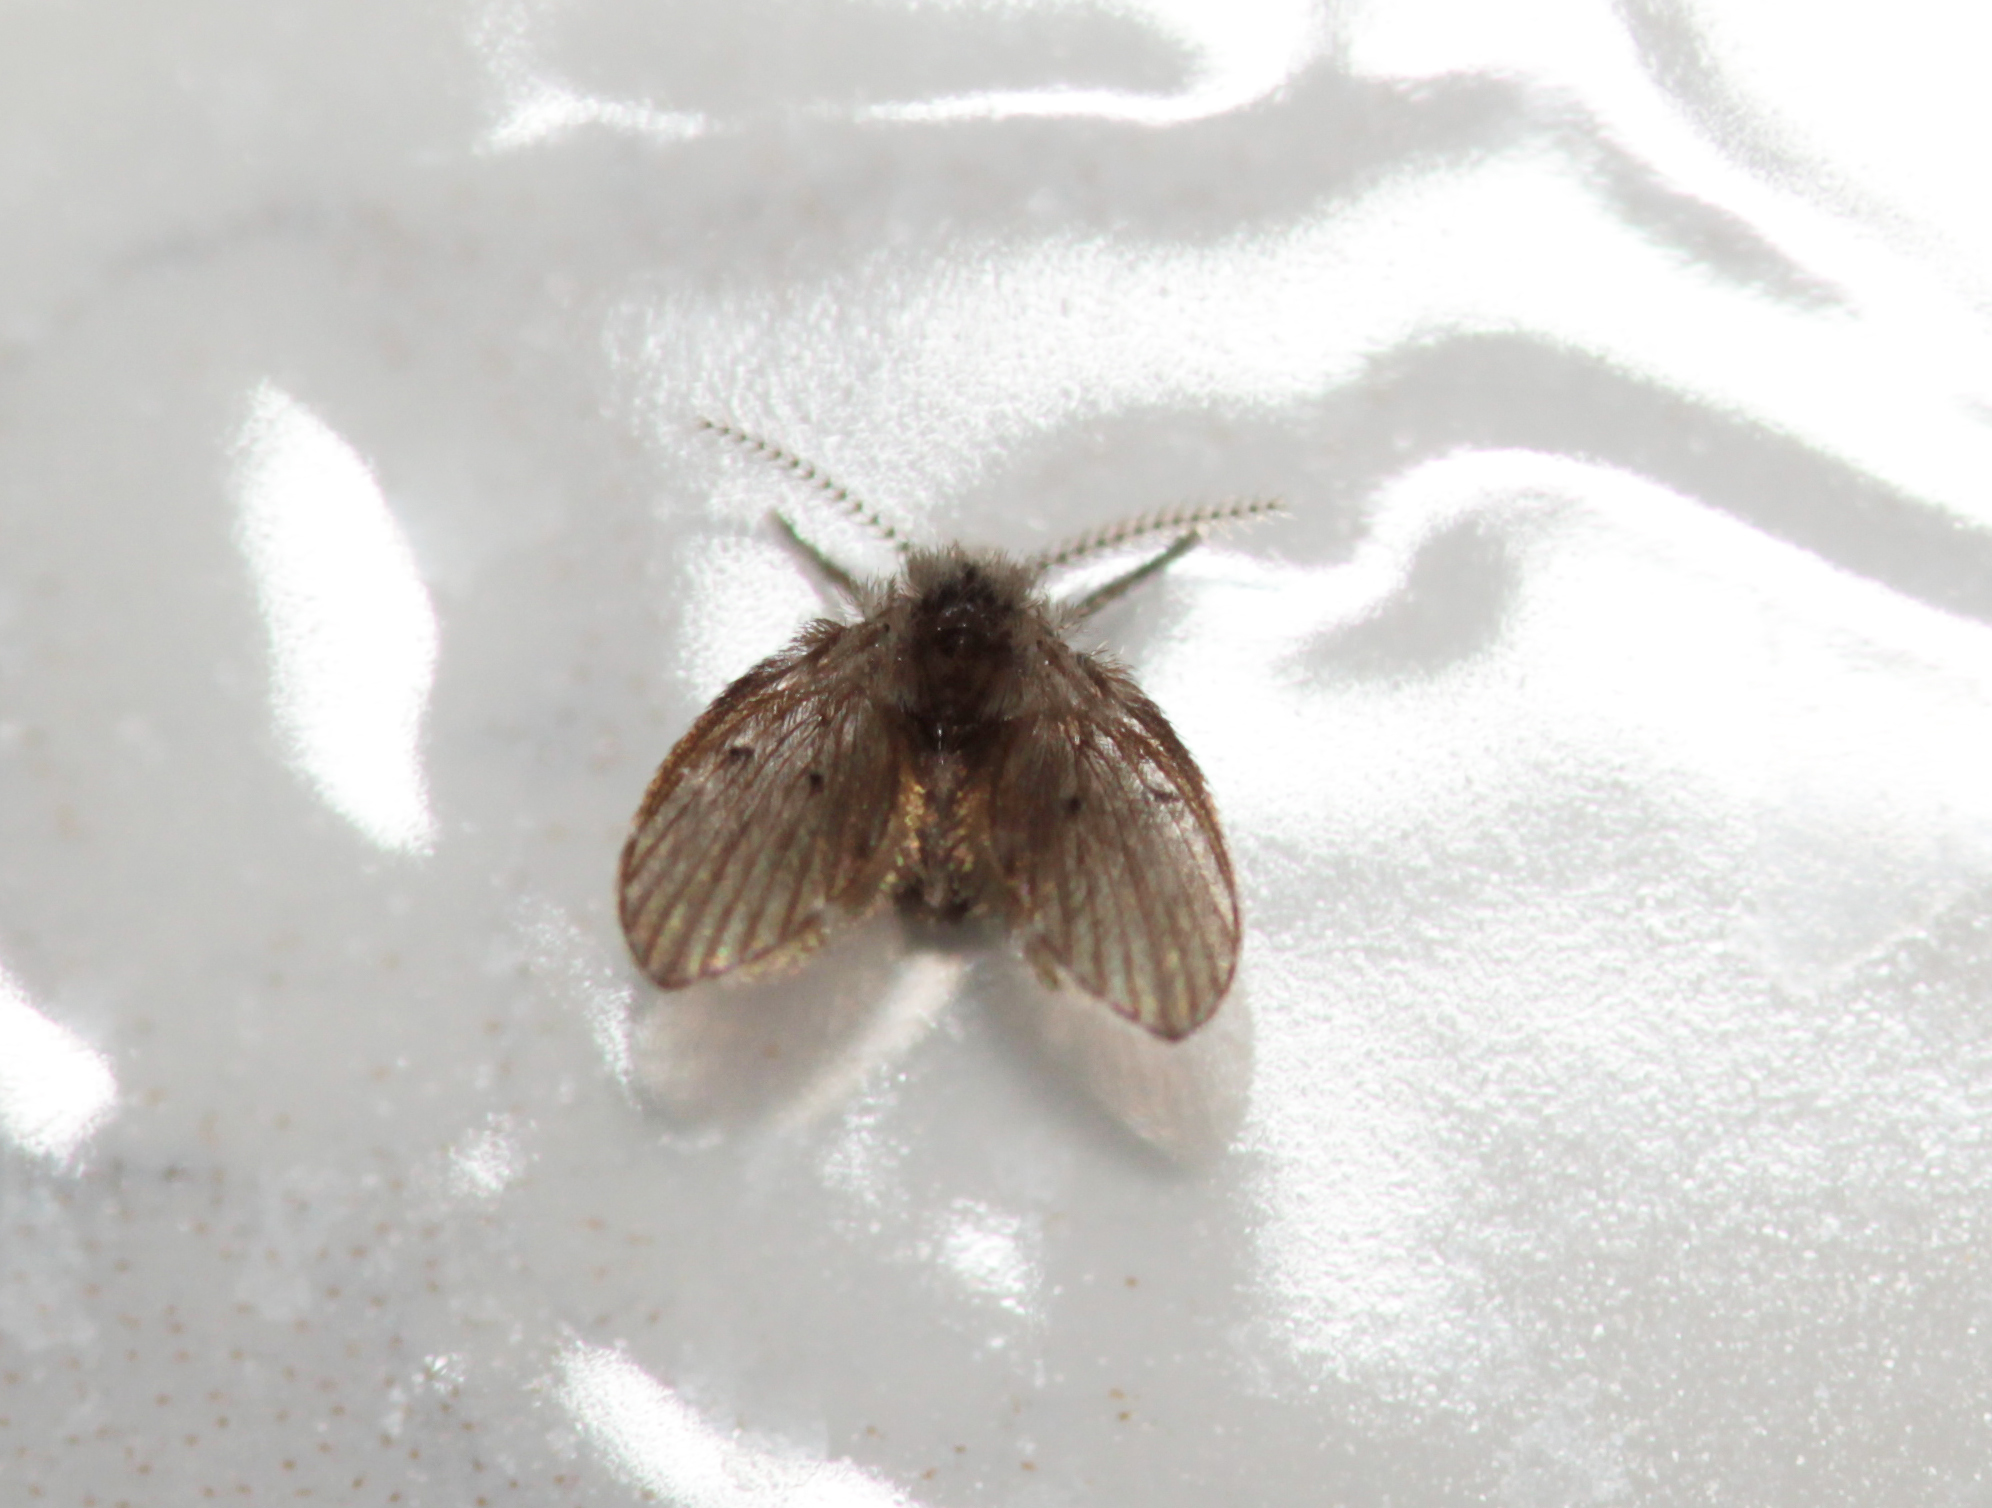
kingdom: Animalia
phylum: Arthropoda
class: Insecta
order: Diptera
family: Psychodidae
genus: Clogmia
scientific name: Clogmia albipunctatus
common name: White-spotted moth fly
